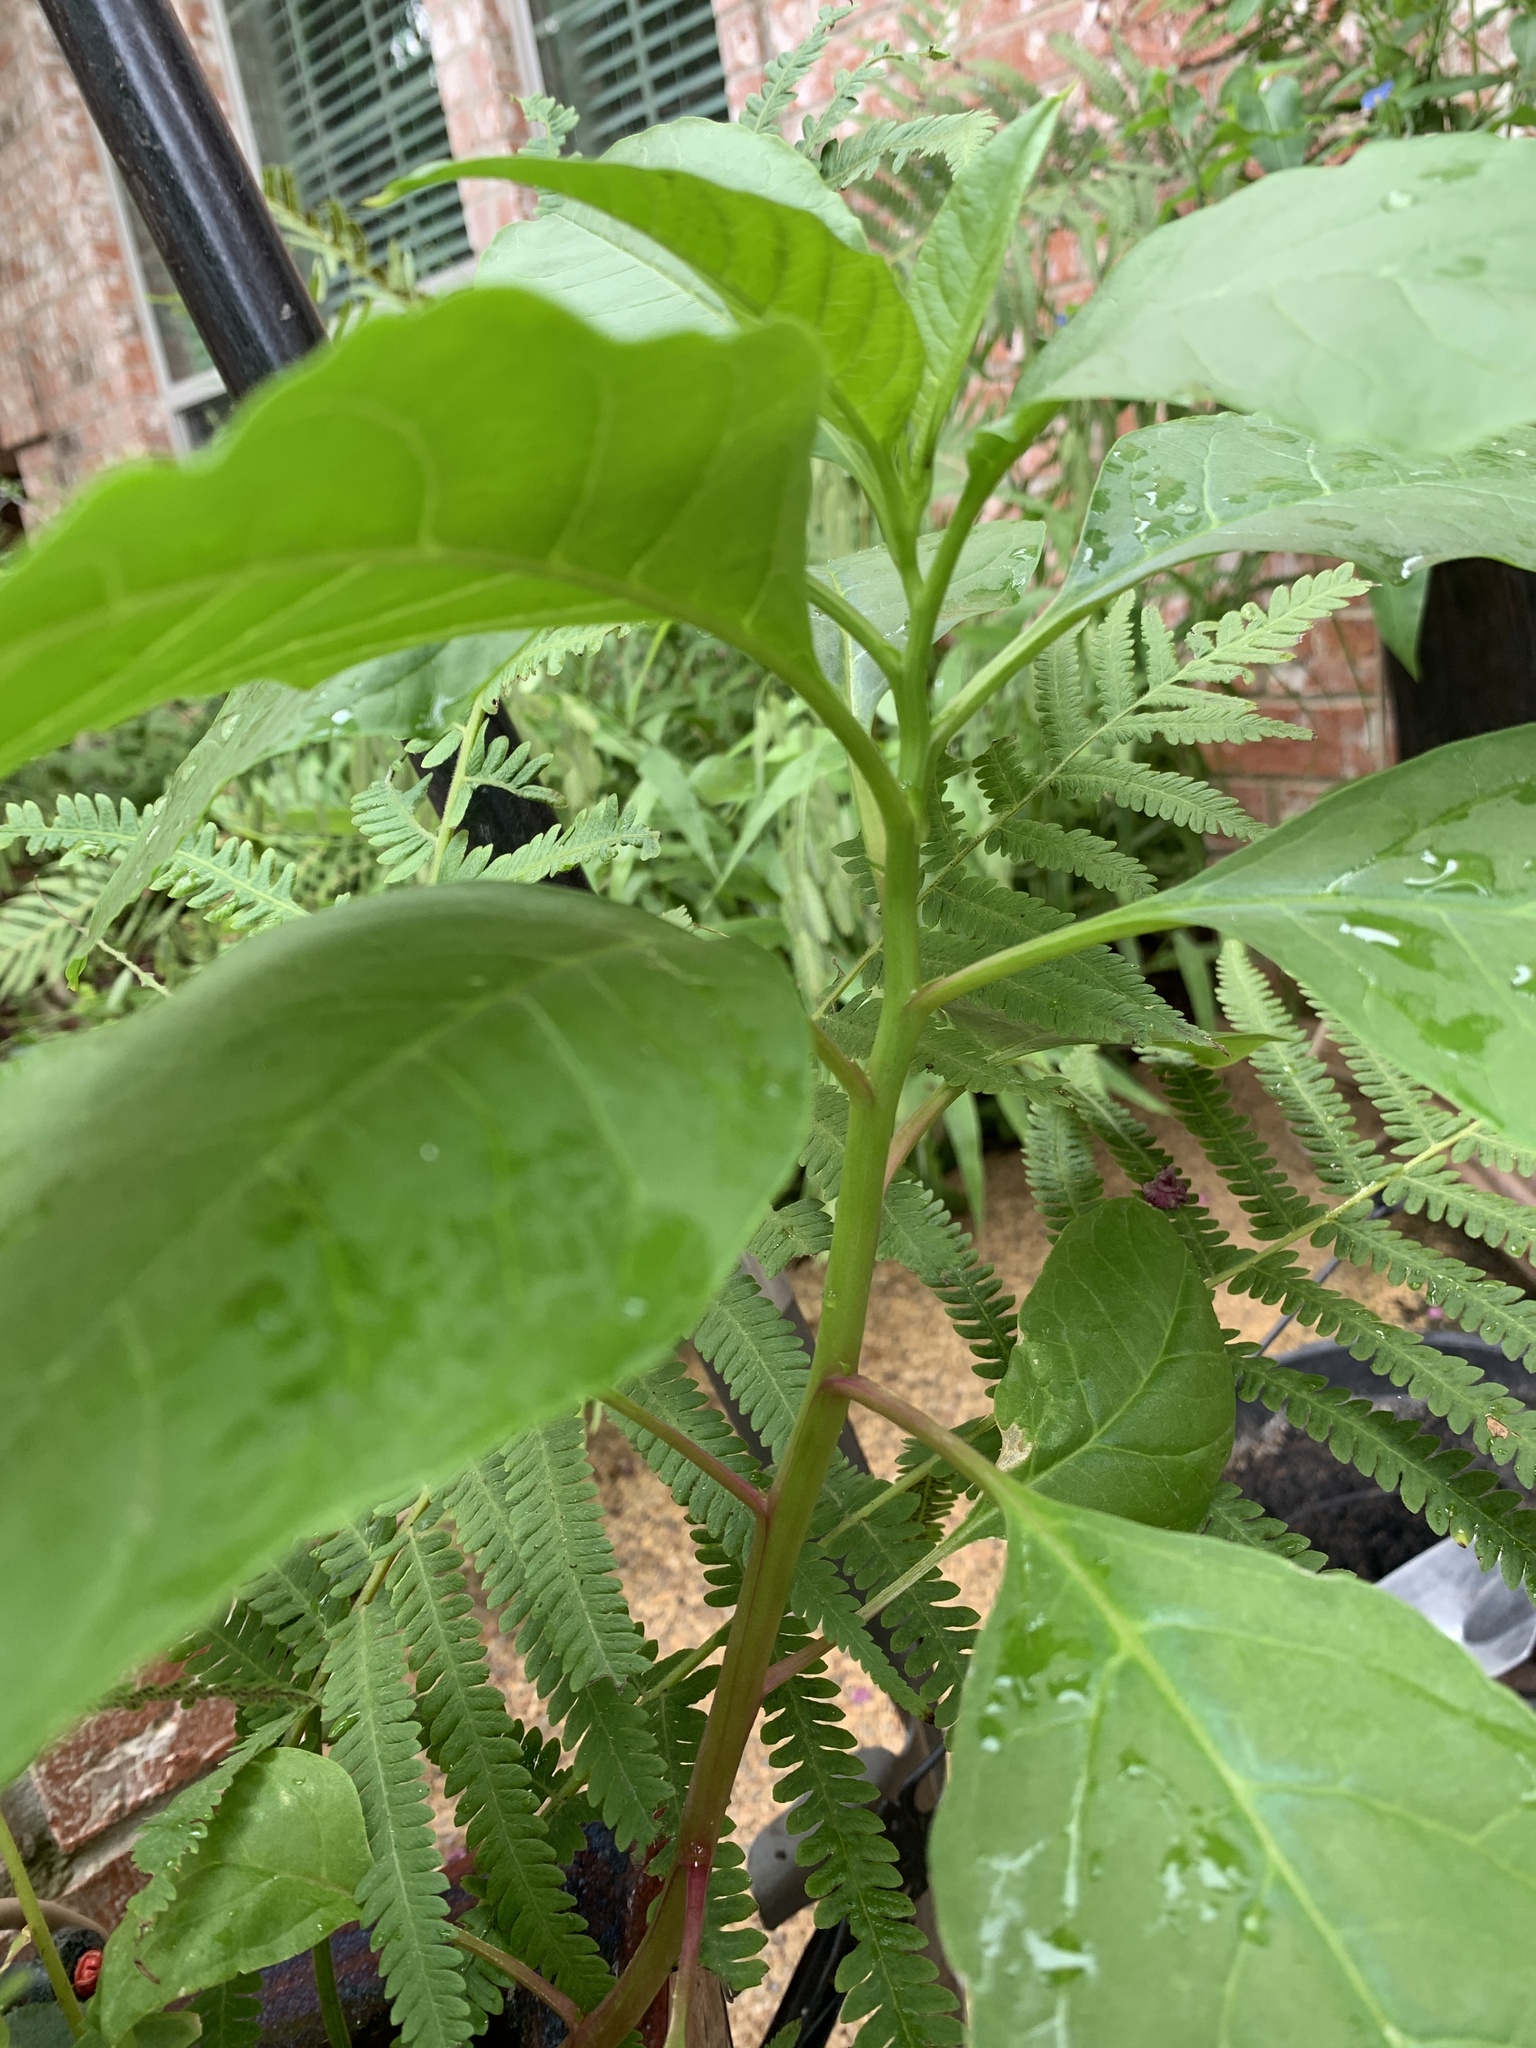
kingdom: Plantae
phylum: Tracheophyta
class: Magnoliopsida
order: Caryophyllales
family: Phytolaccaceae
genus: Phytolacca
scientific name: Phytolacca americana
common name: American pokeweed
